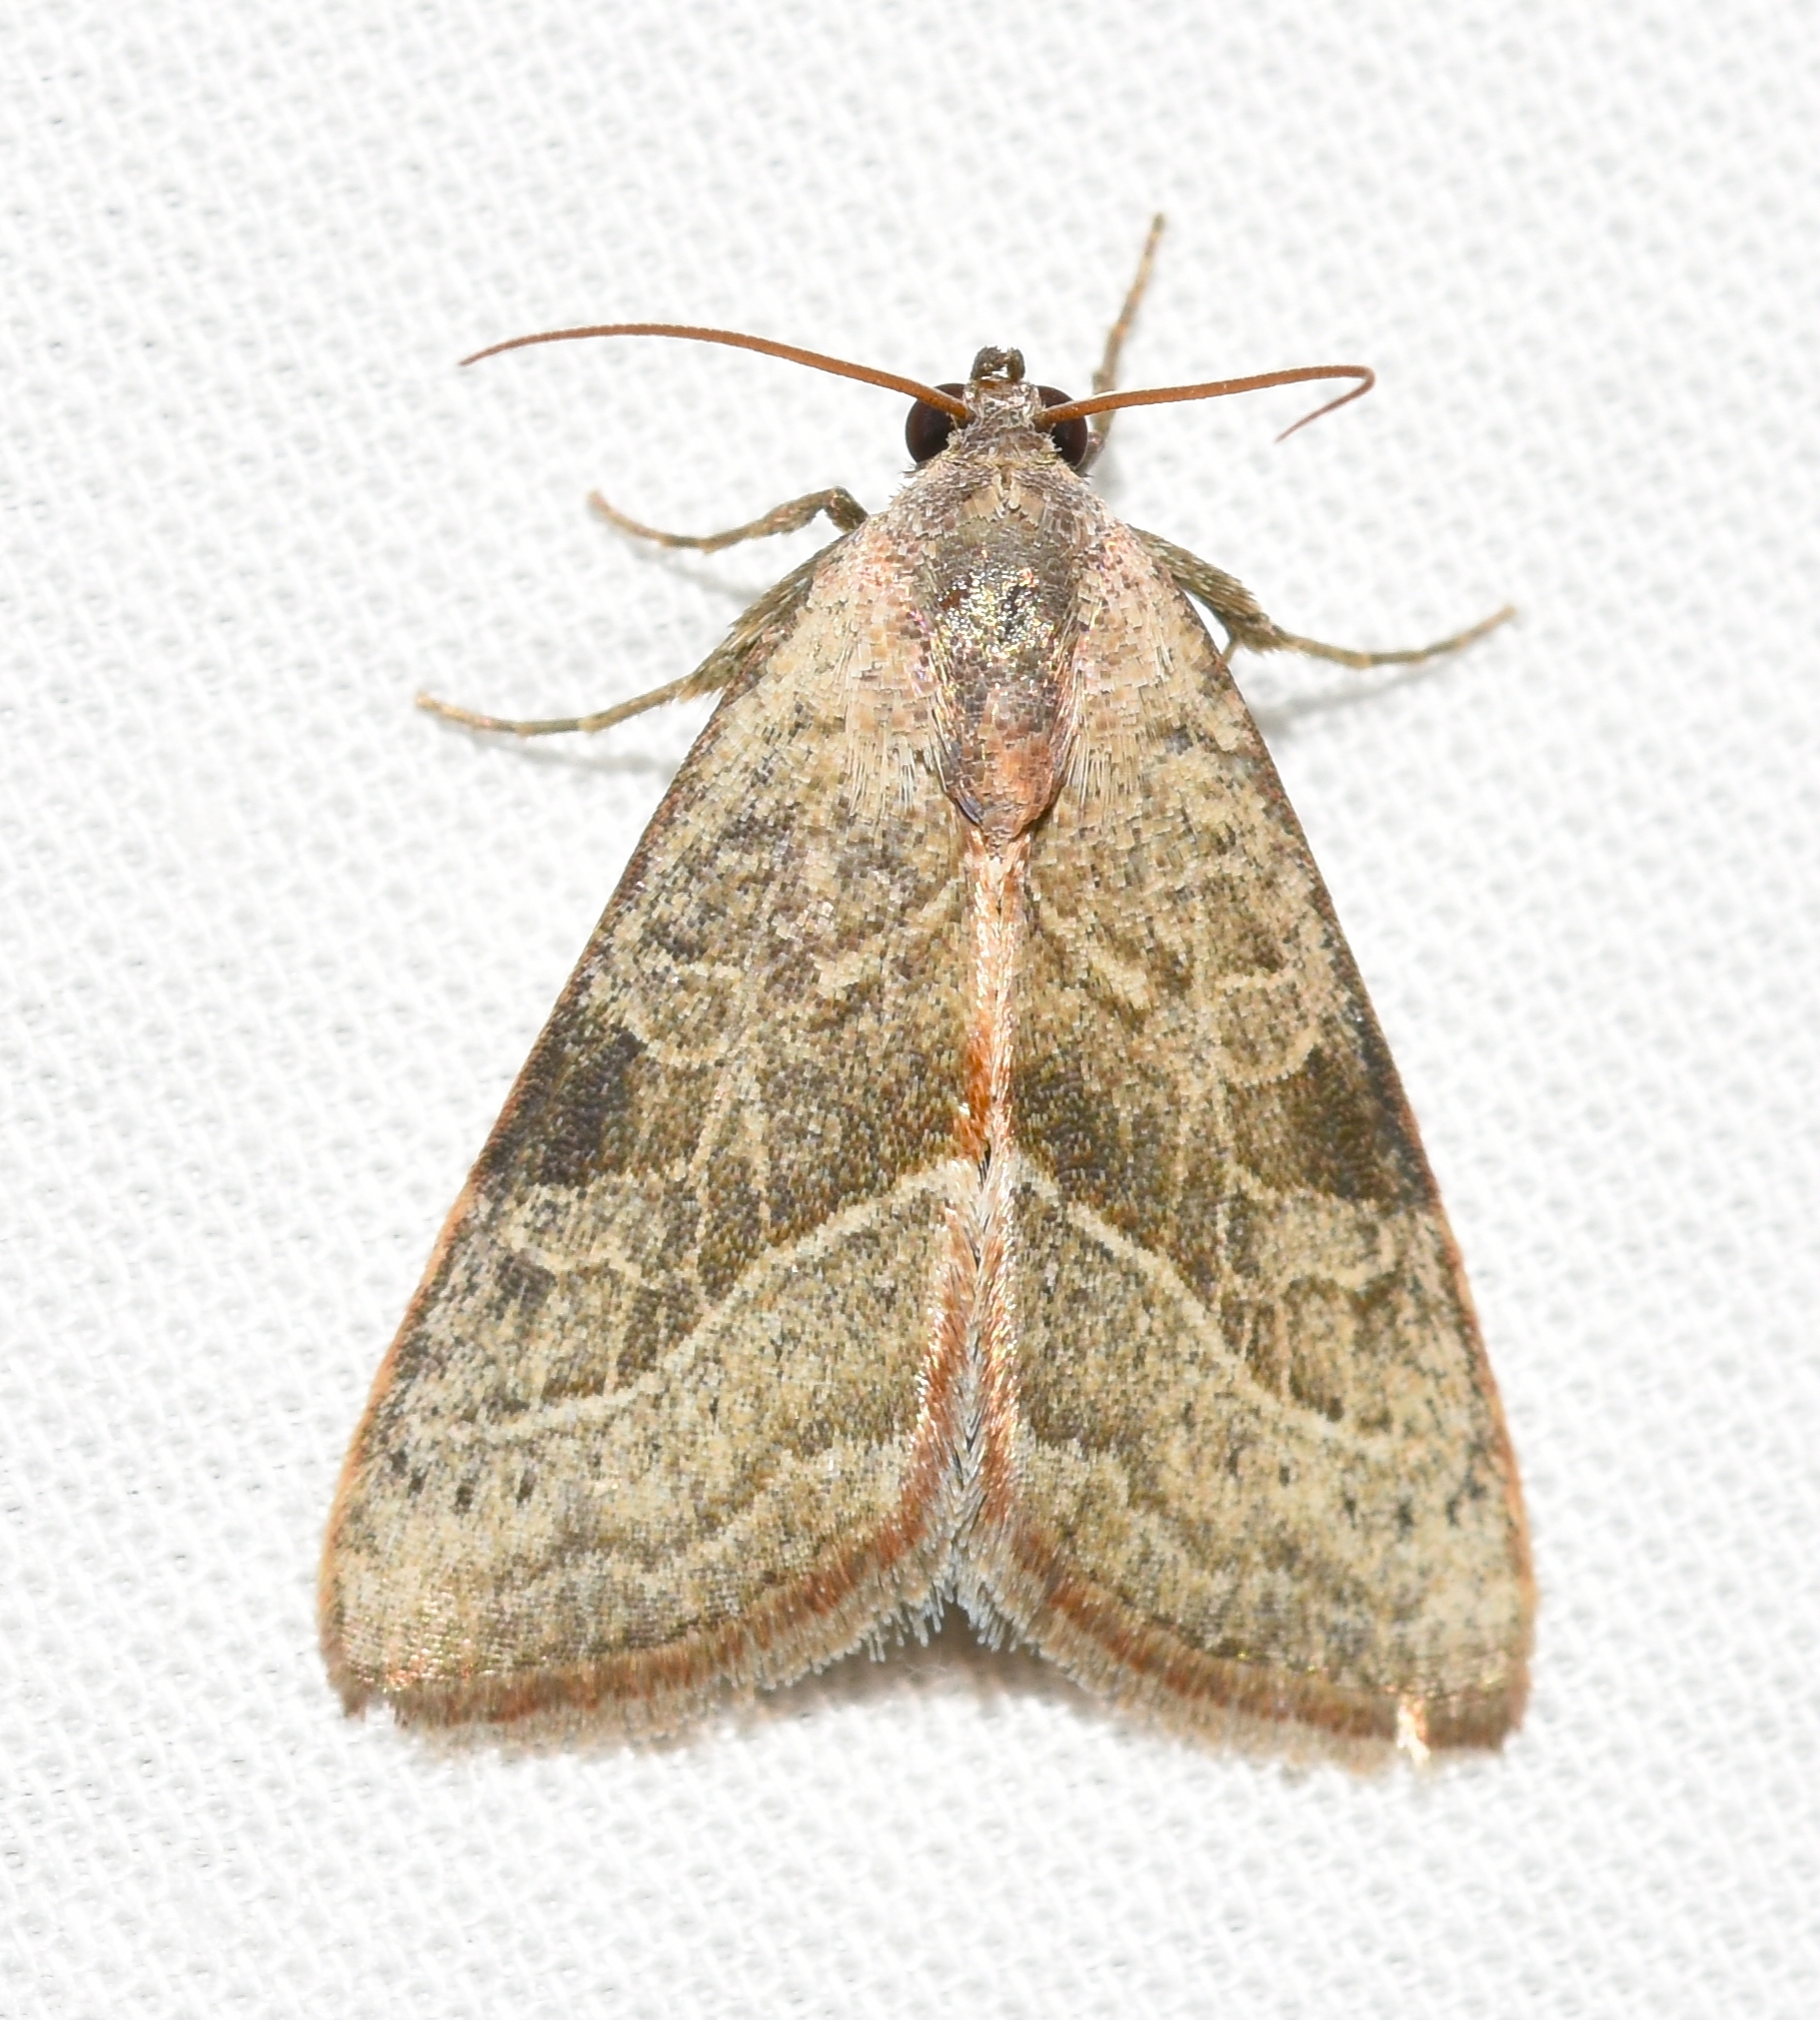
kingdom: Animalia
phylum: Arthropoda
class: Insecta
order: Lepidoptera
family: Noctuidae
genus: Galgula
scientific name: Galgula partita
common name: Wedgeling
